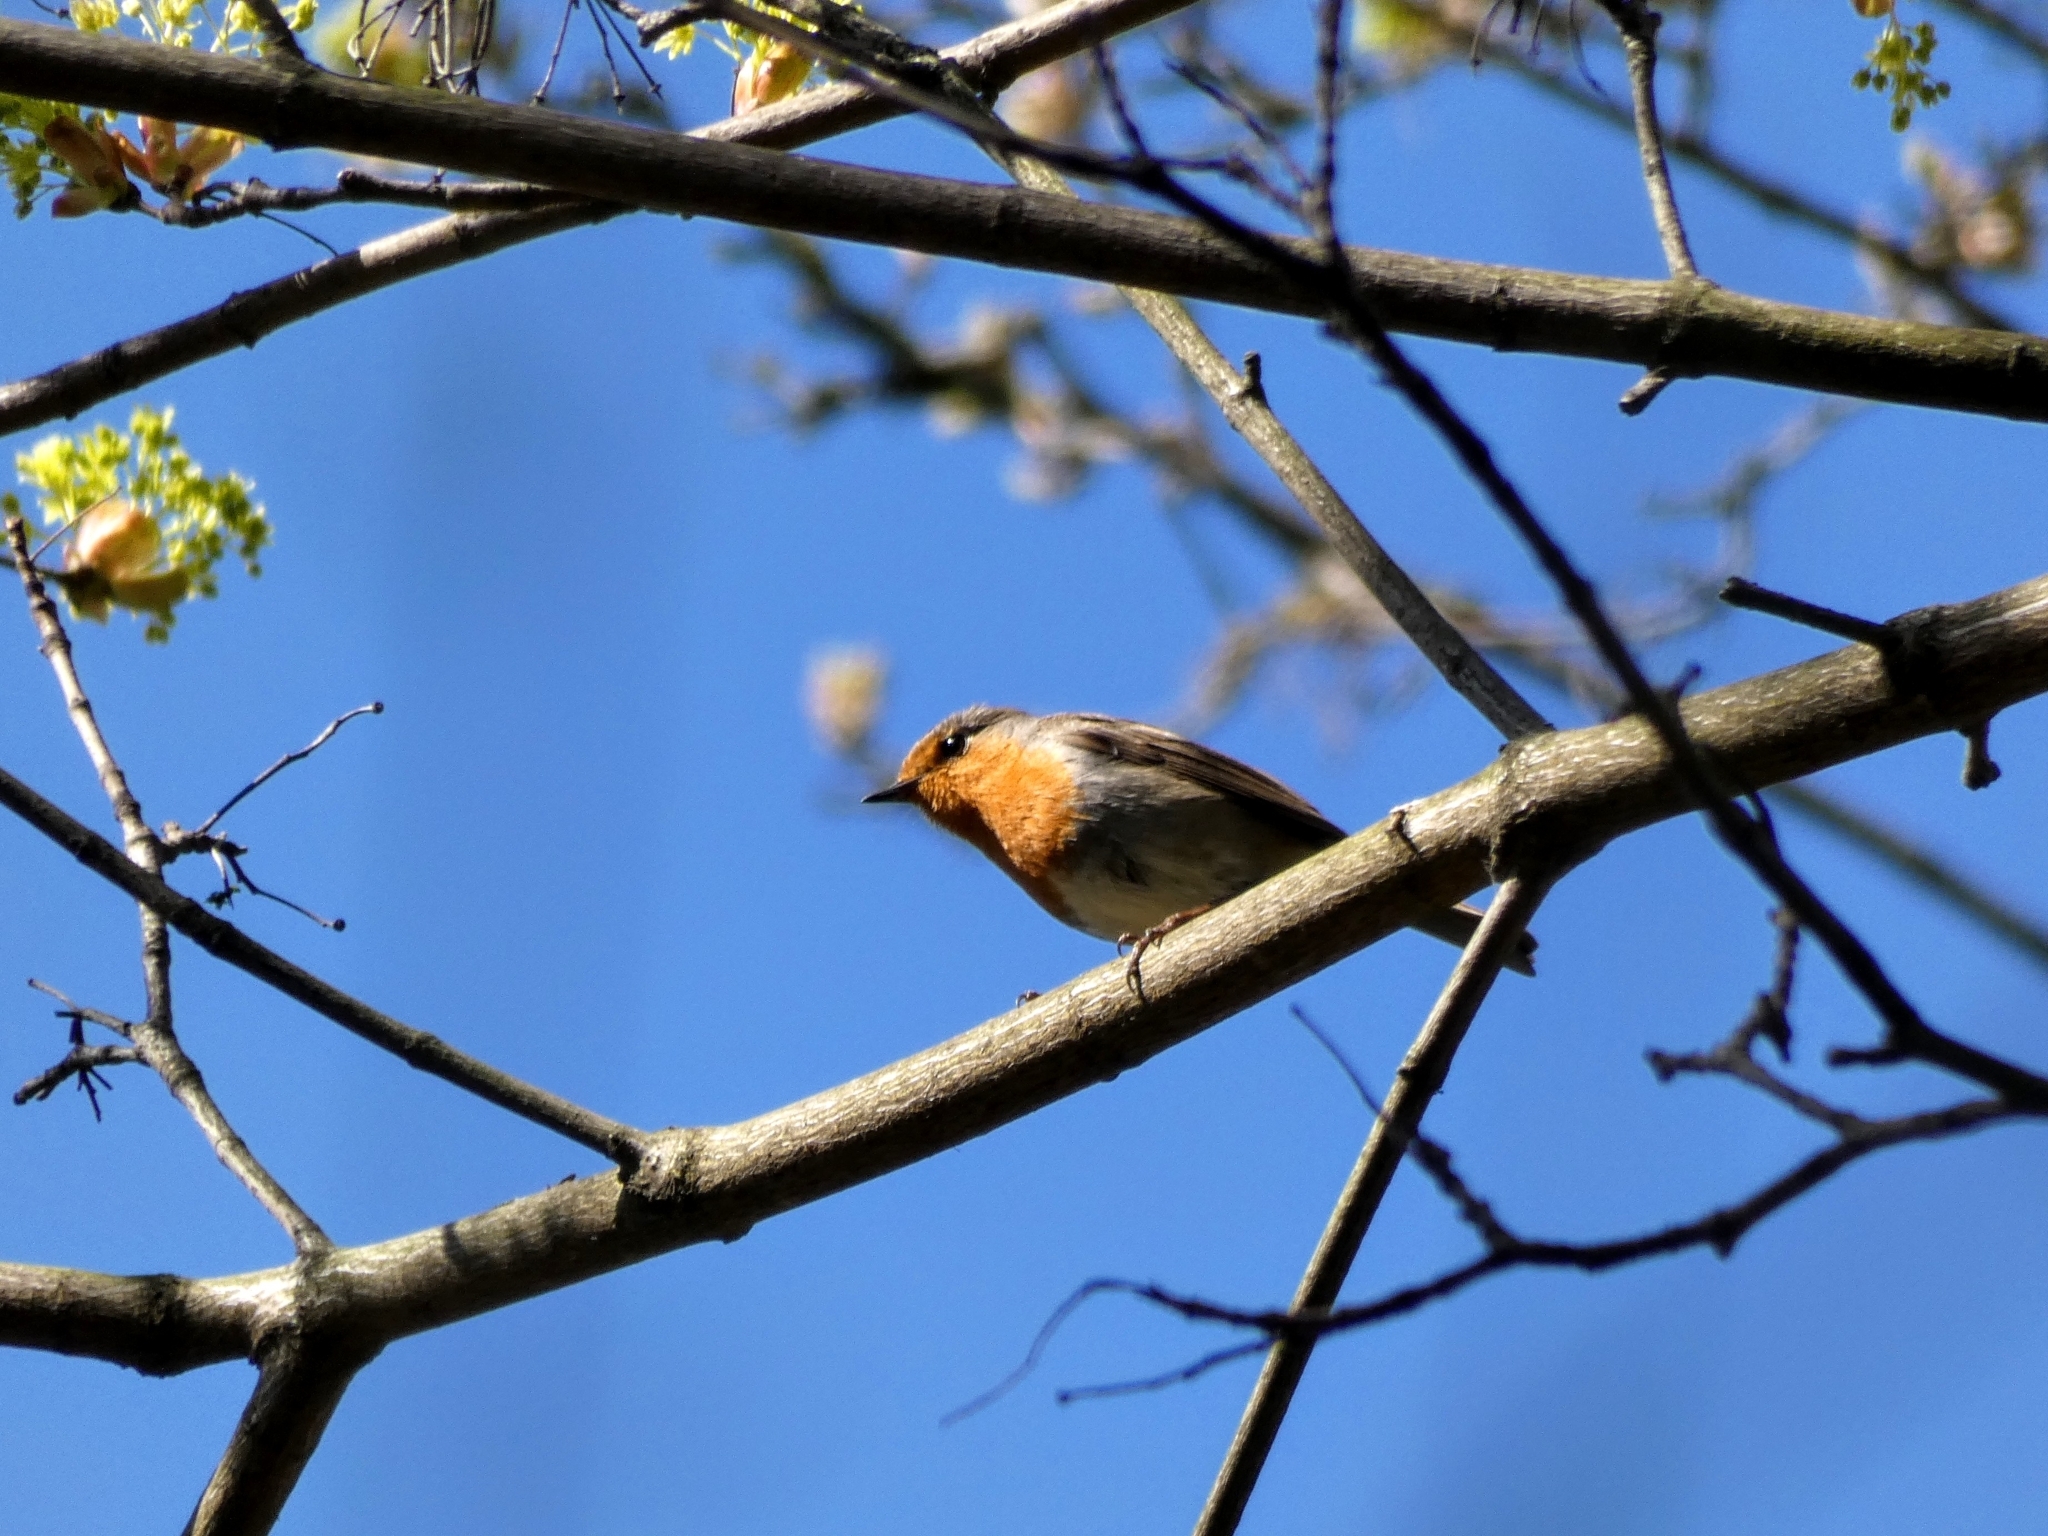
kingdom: Animalia
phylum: Chordata
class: Aves
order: Passeriformes
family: Muscicapidae
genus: Erithacus
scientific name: Erithacus rubecula
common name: European robin
